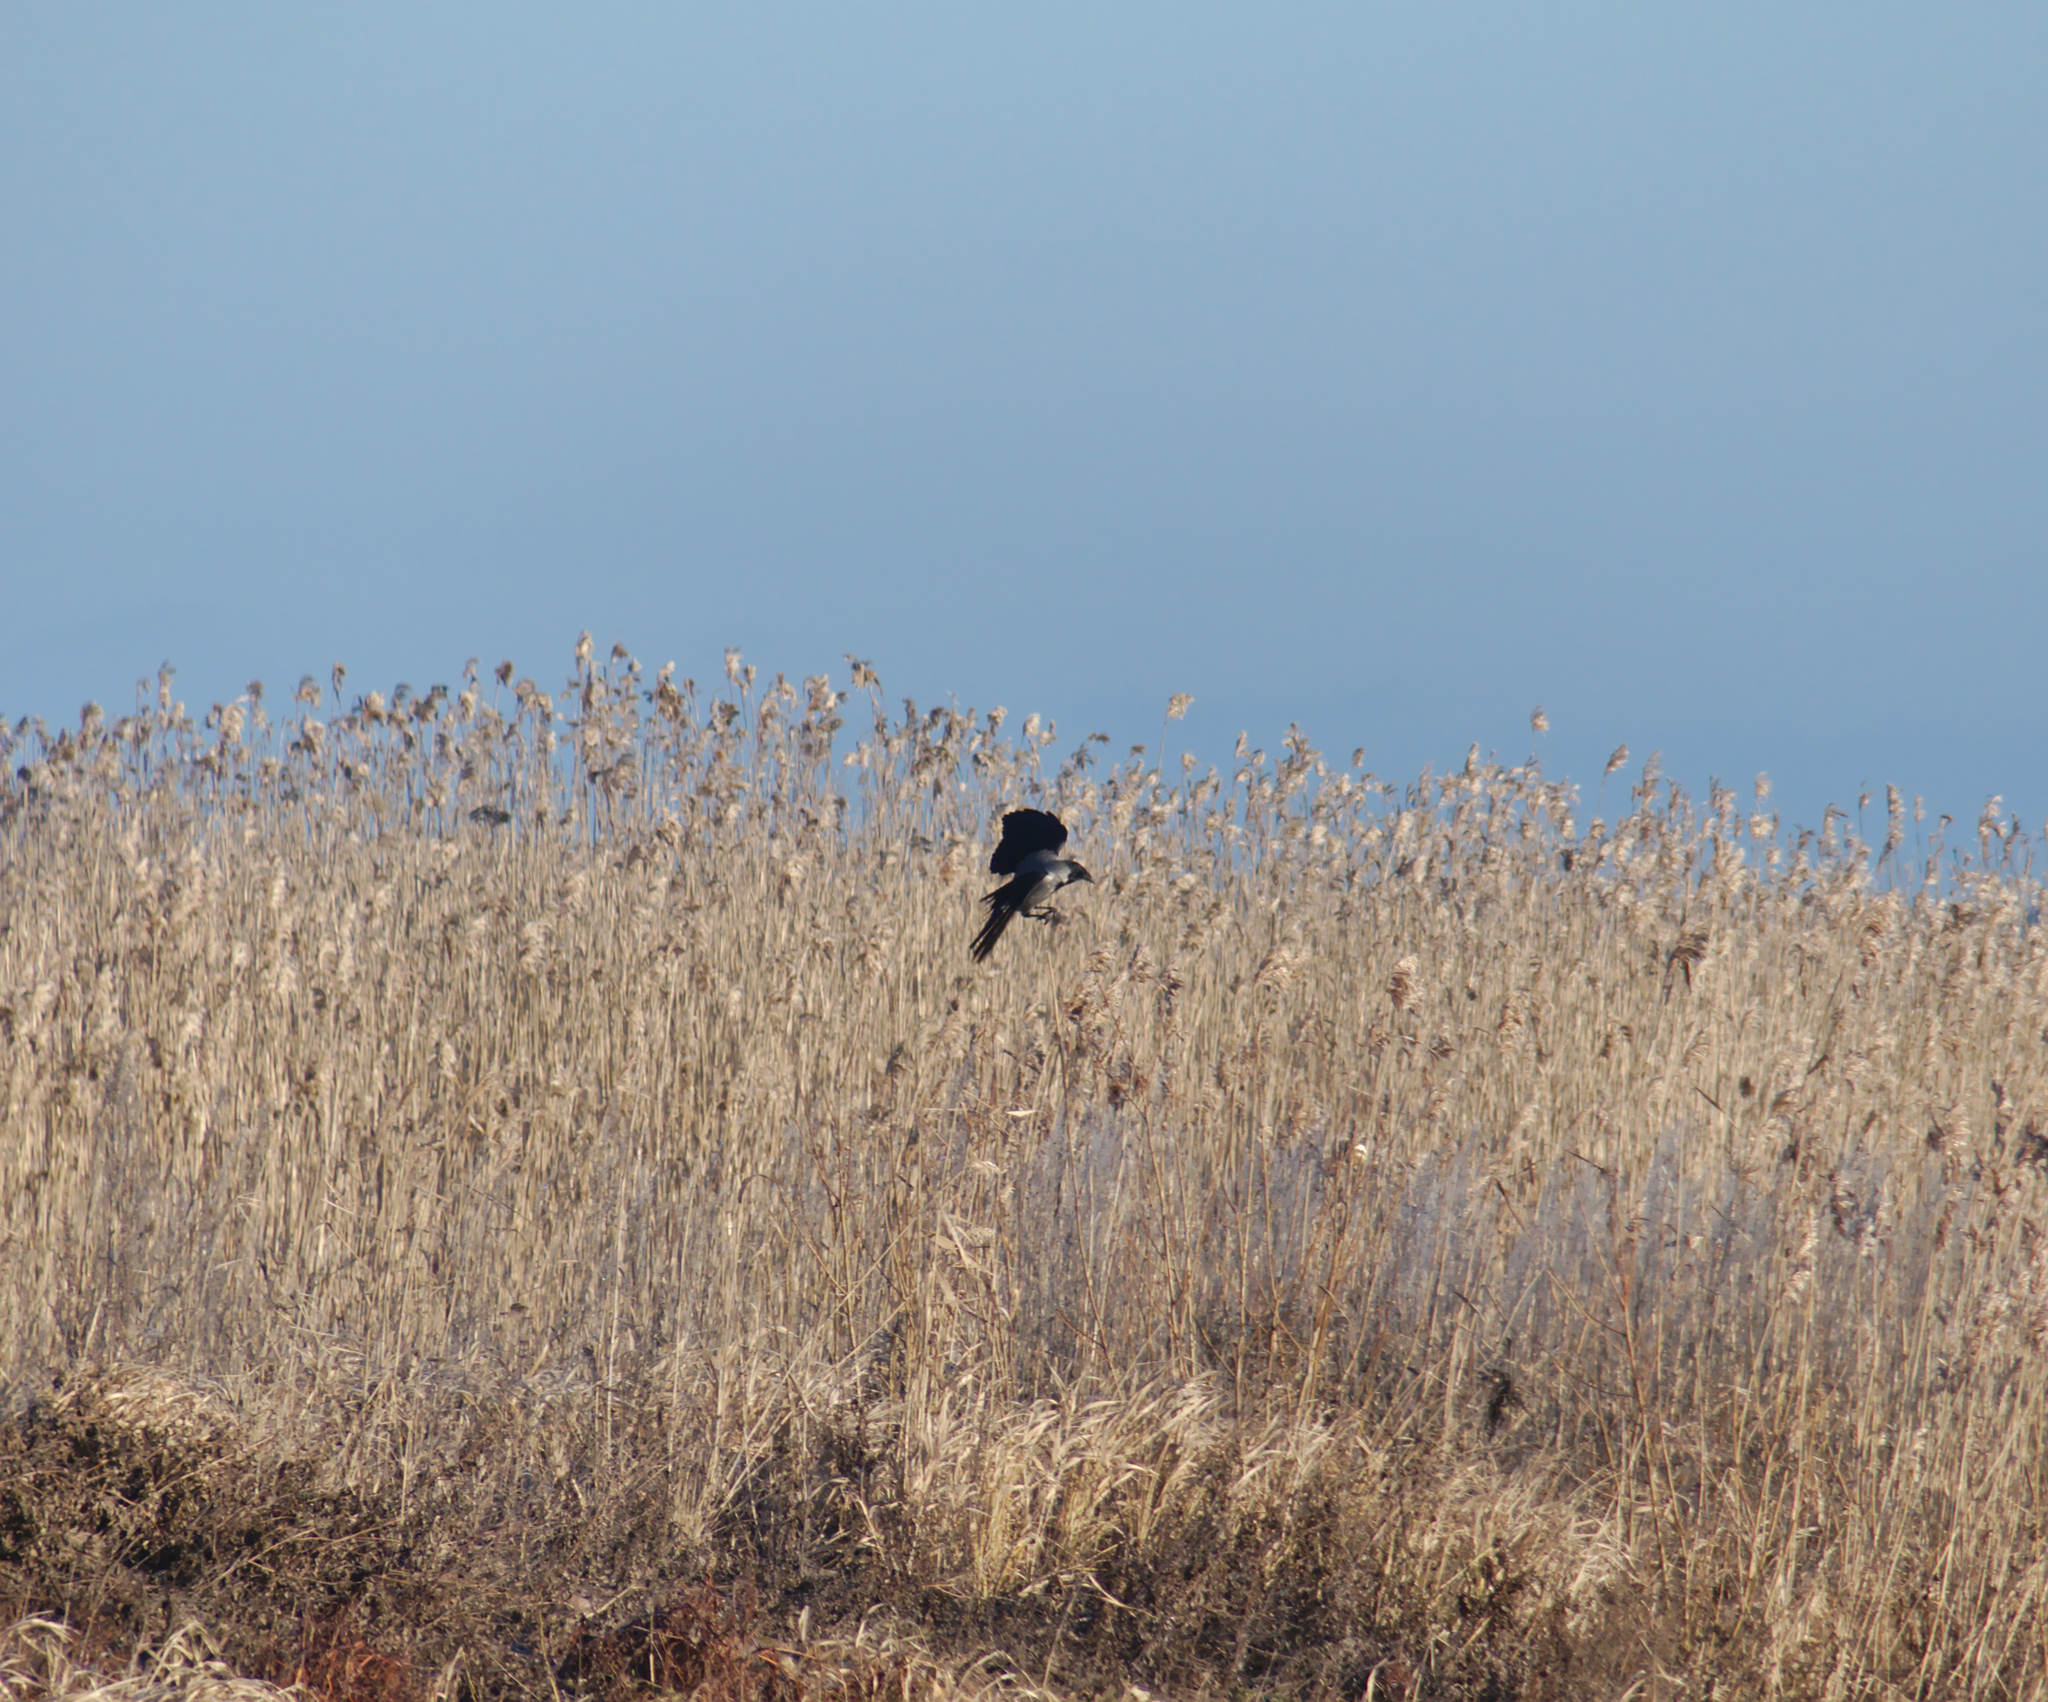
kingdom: Animalia
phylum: Chordata
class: Aves
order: Passeriformes
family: Corvidae
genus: Corvus
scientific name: Corvus cornix
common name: Hooded crow
